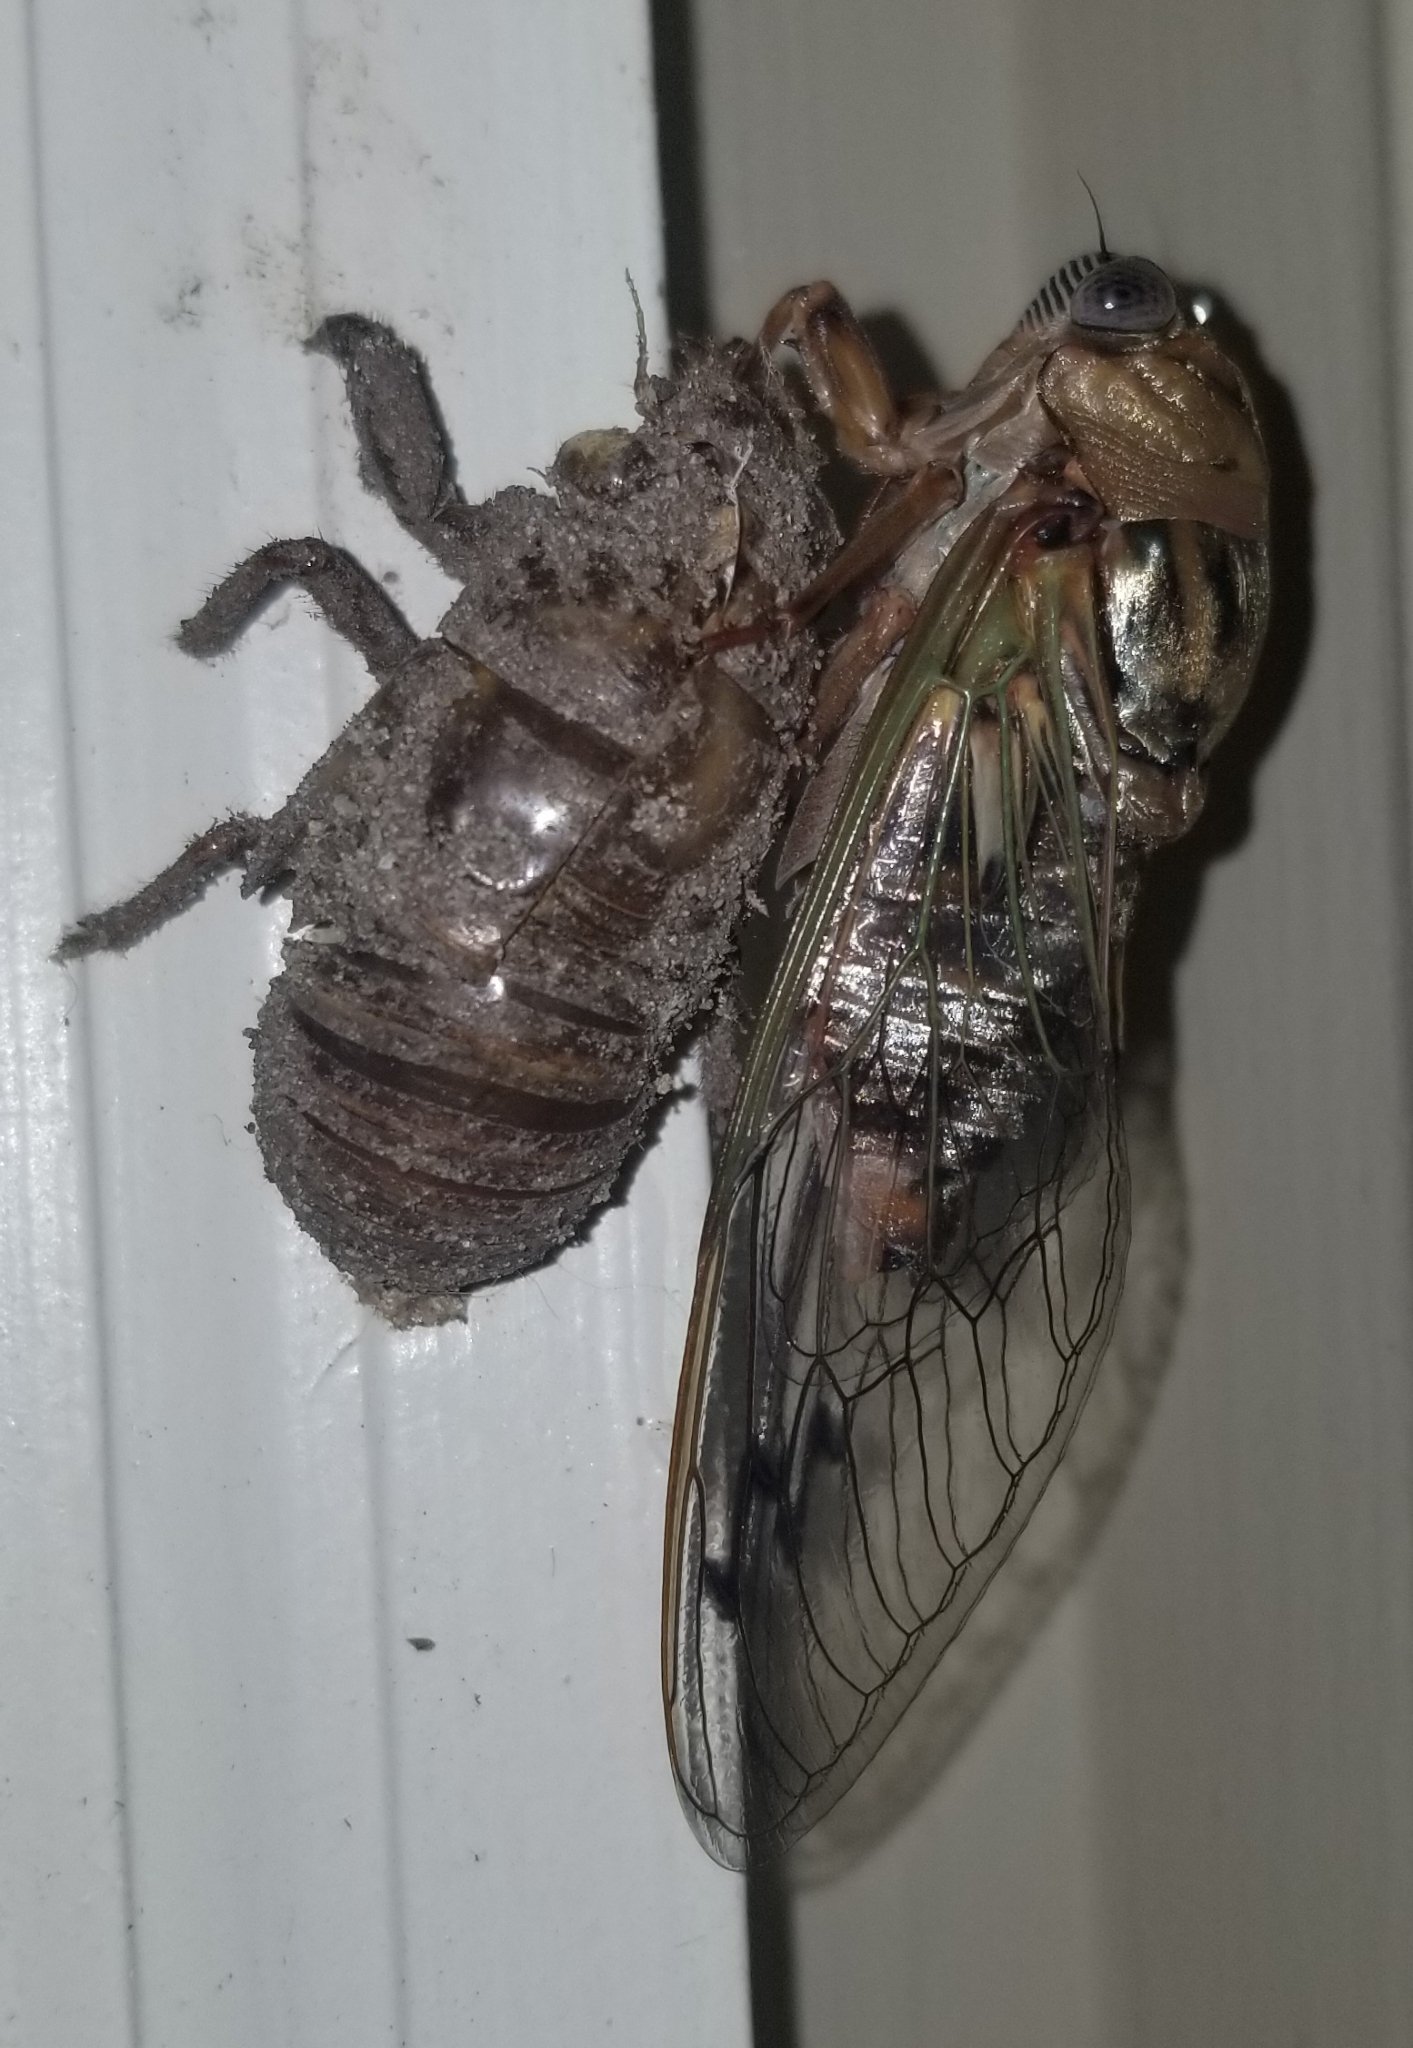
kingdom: Animalia
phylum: Arthropoda
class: Insecta
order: Hemiptera
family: Cicadidae
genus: Megatibicen
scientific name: Megatibicen resh
